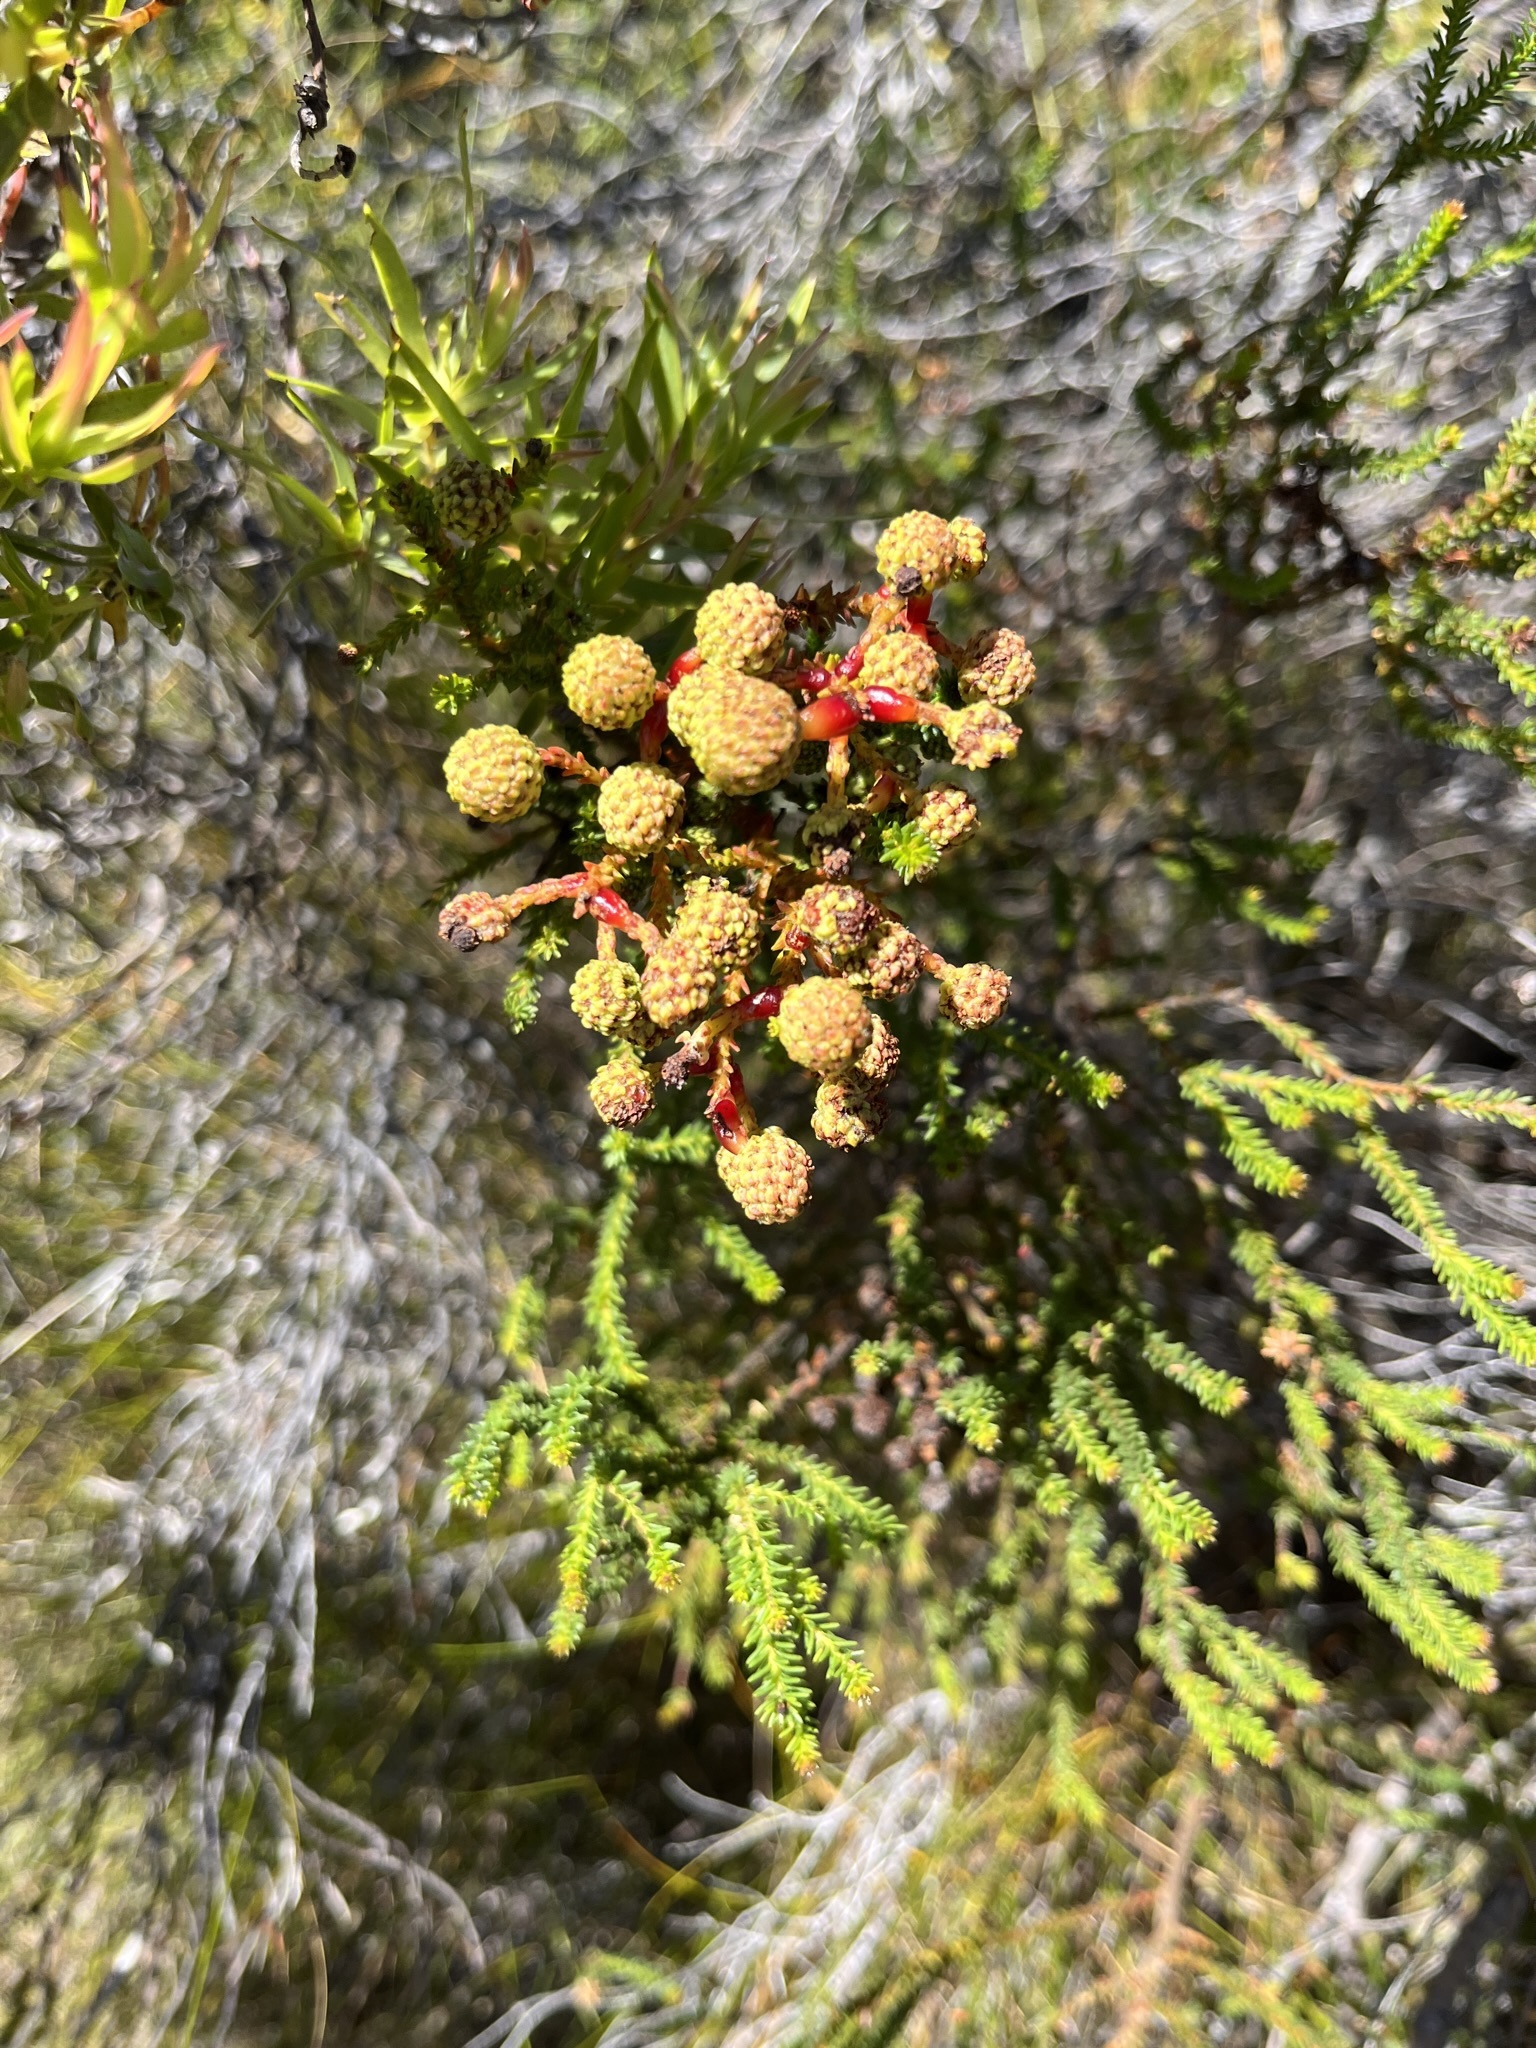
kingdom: Plantae
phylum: Tracheophyta
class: Magnoliopsida
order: Bruniales
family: Bruniaceae
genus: Berzelia
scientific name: Berzelia abrotanoides
